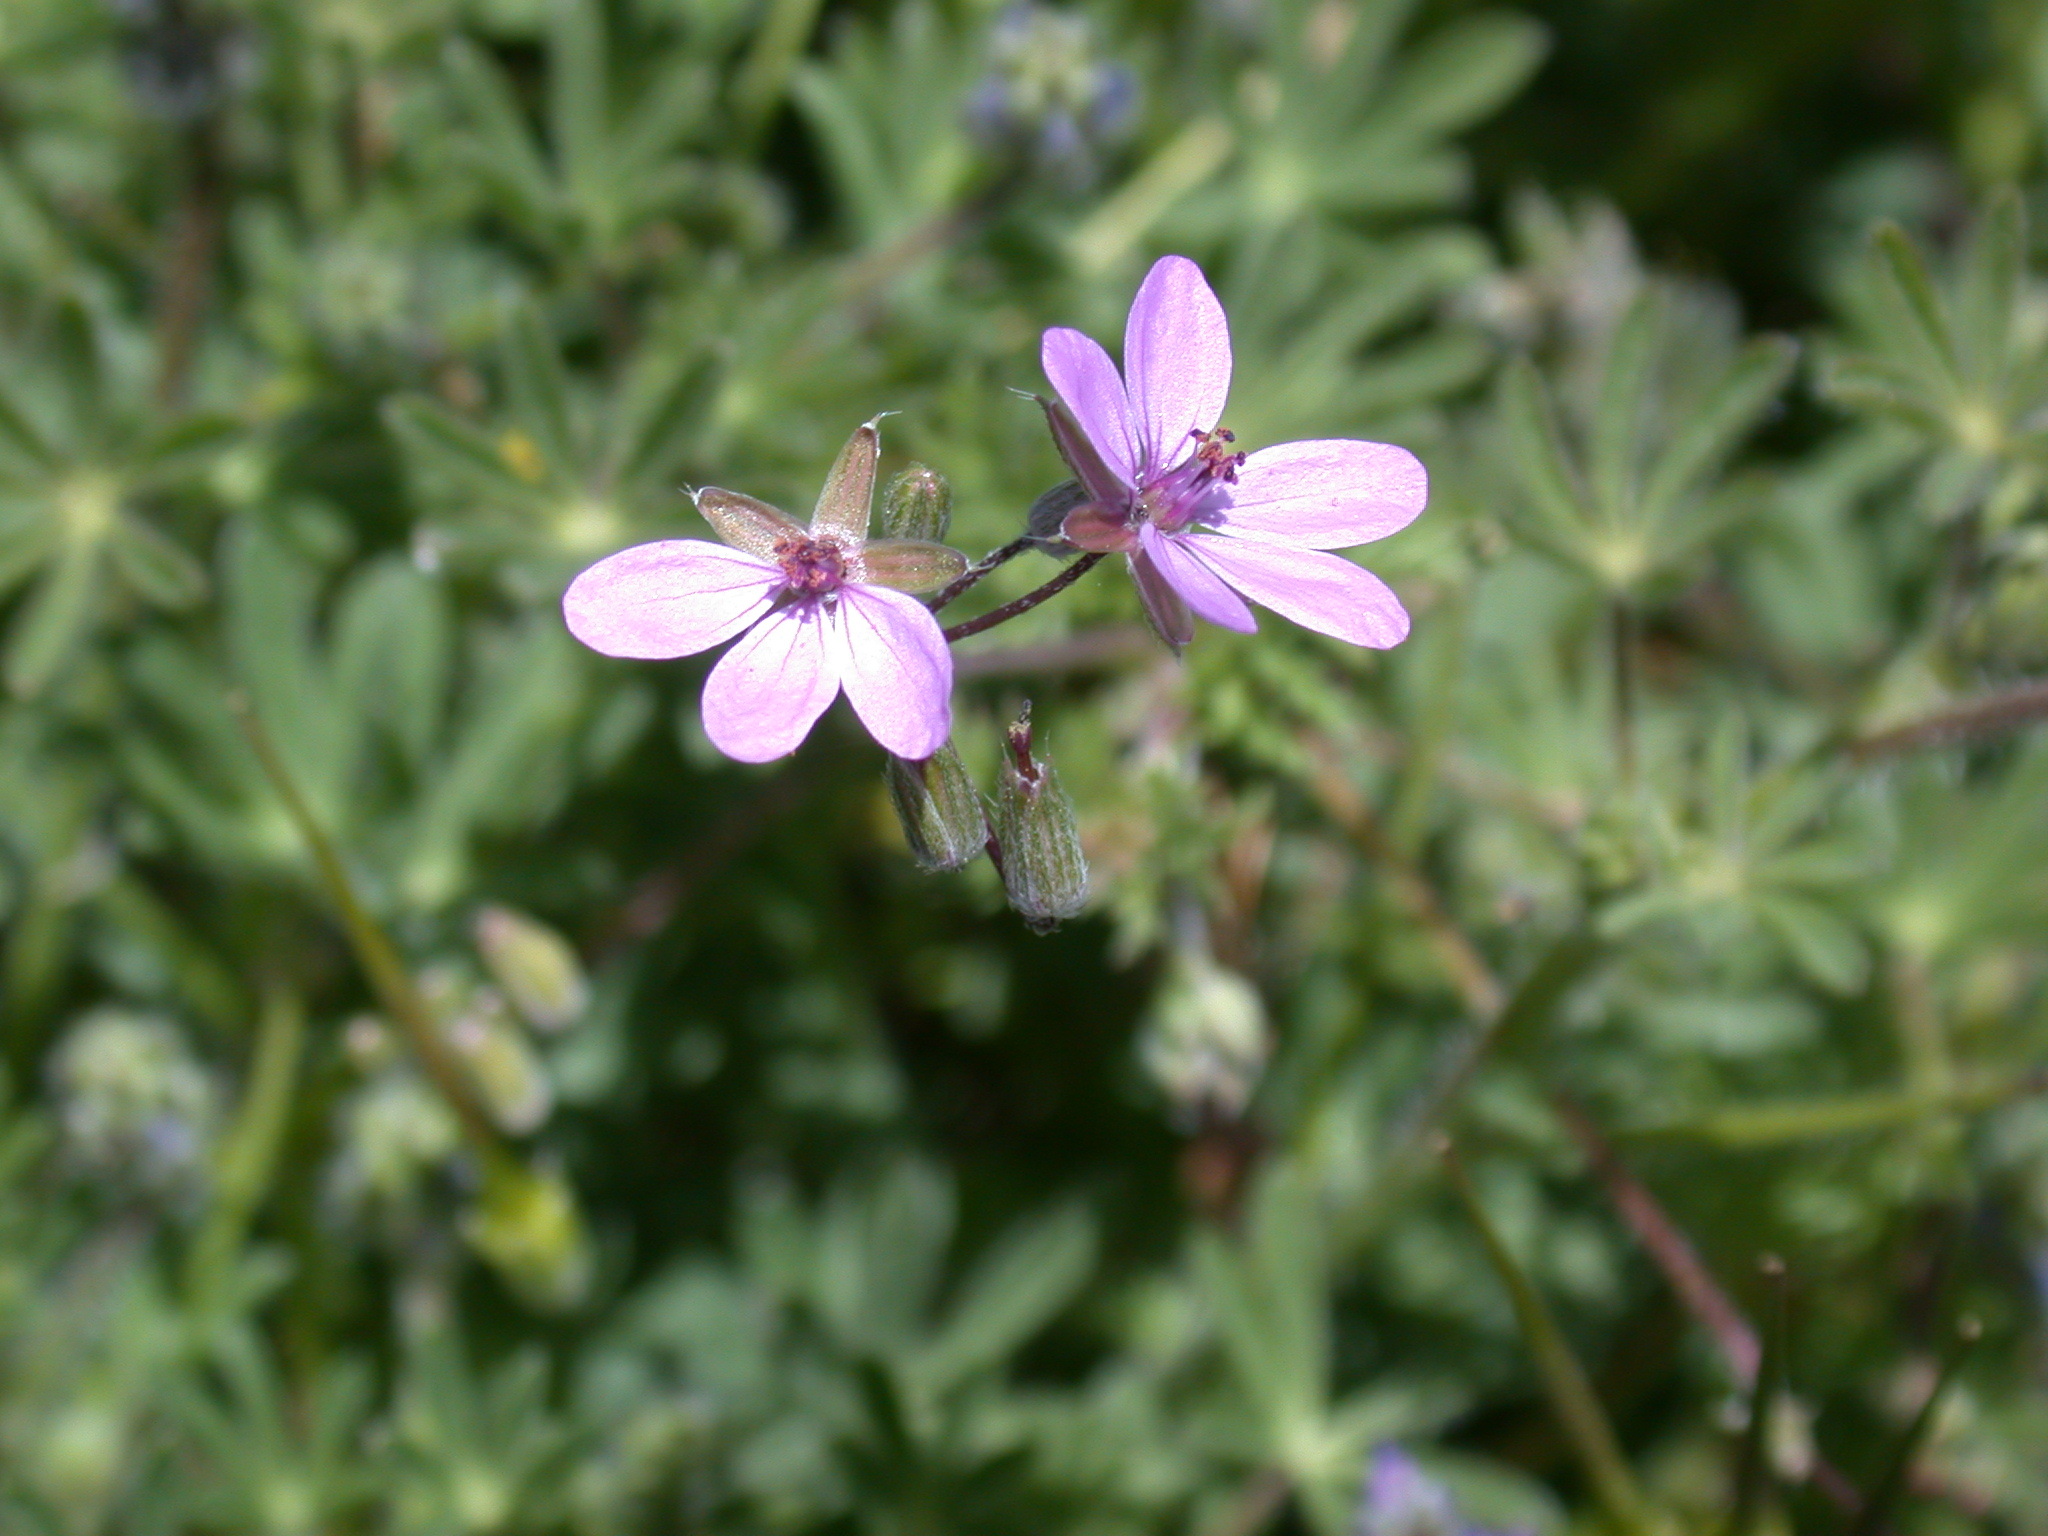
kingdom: Plantae
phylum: Tracheophyta
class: Magnoliopsida
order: Geraniales
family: Geraniaceae
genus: Erodium
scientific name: Erodium cicutarium
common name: Common stork's-bill
